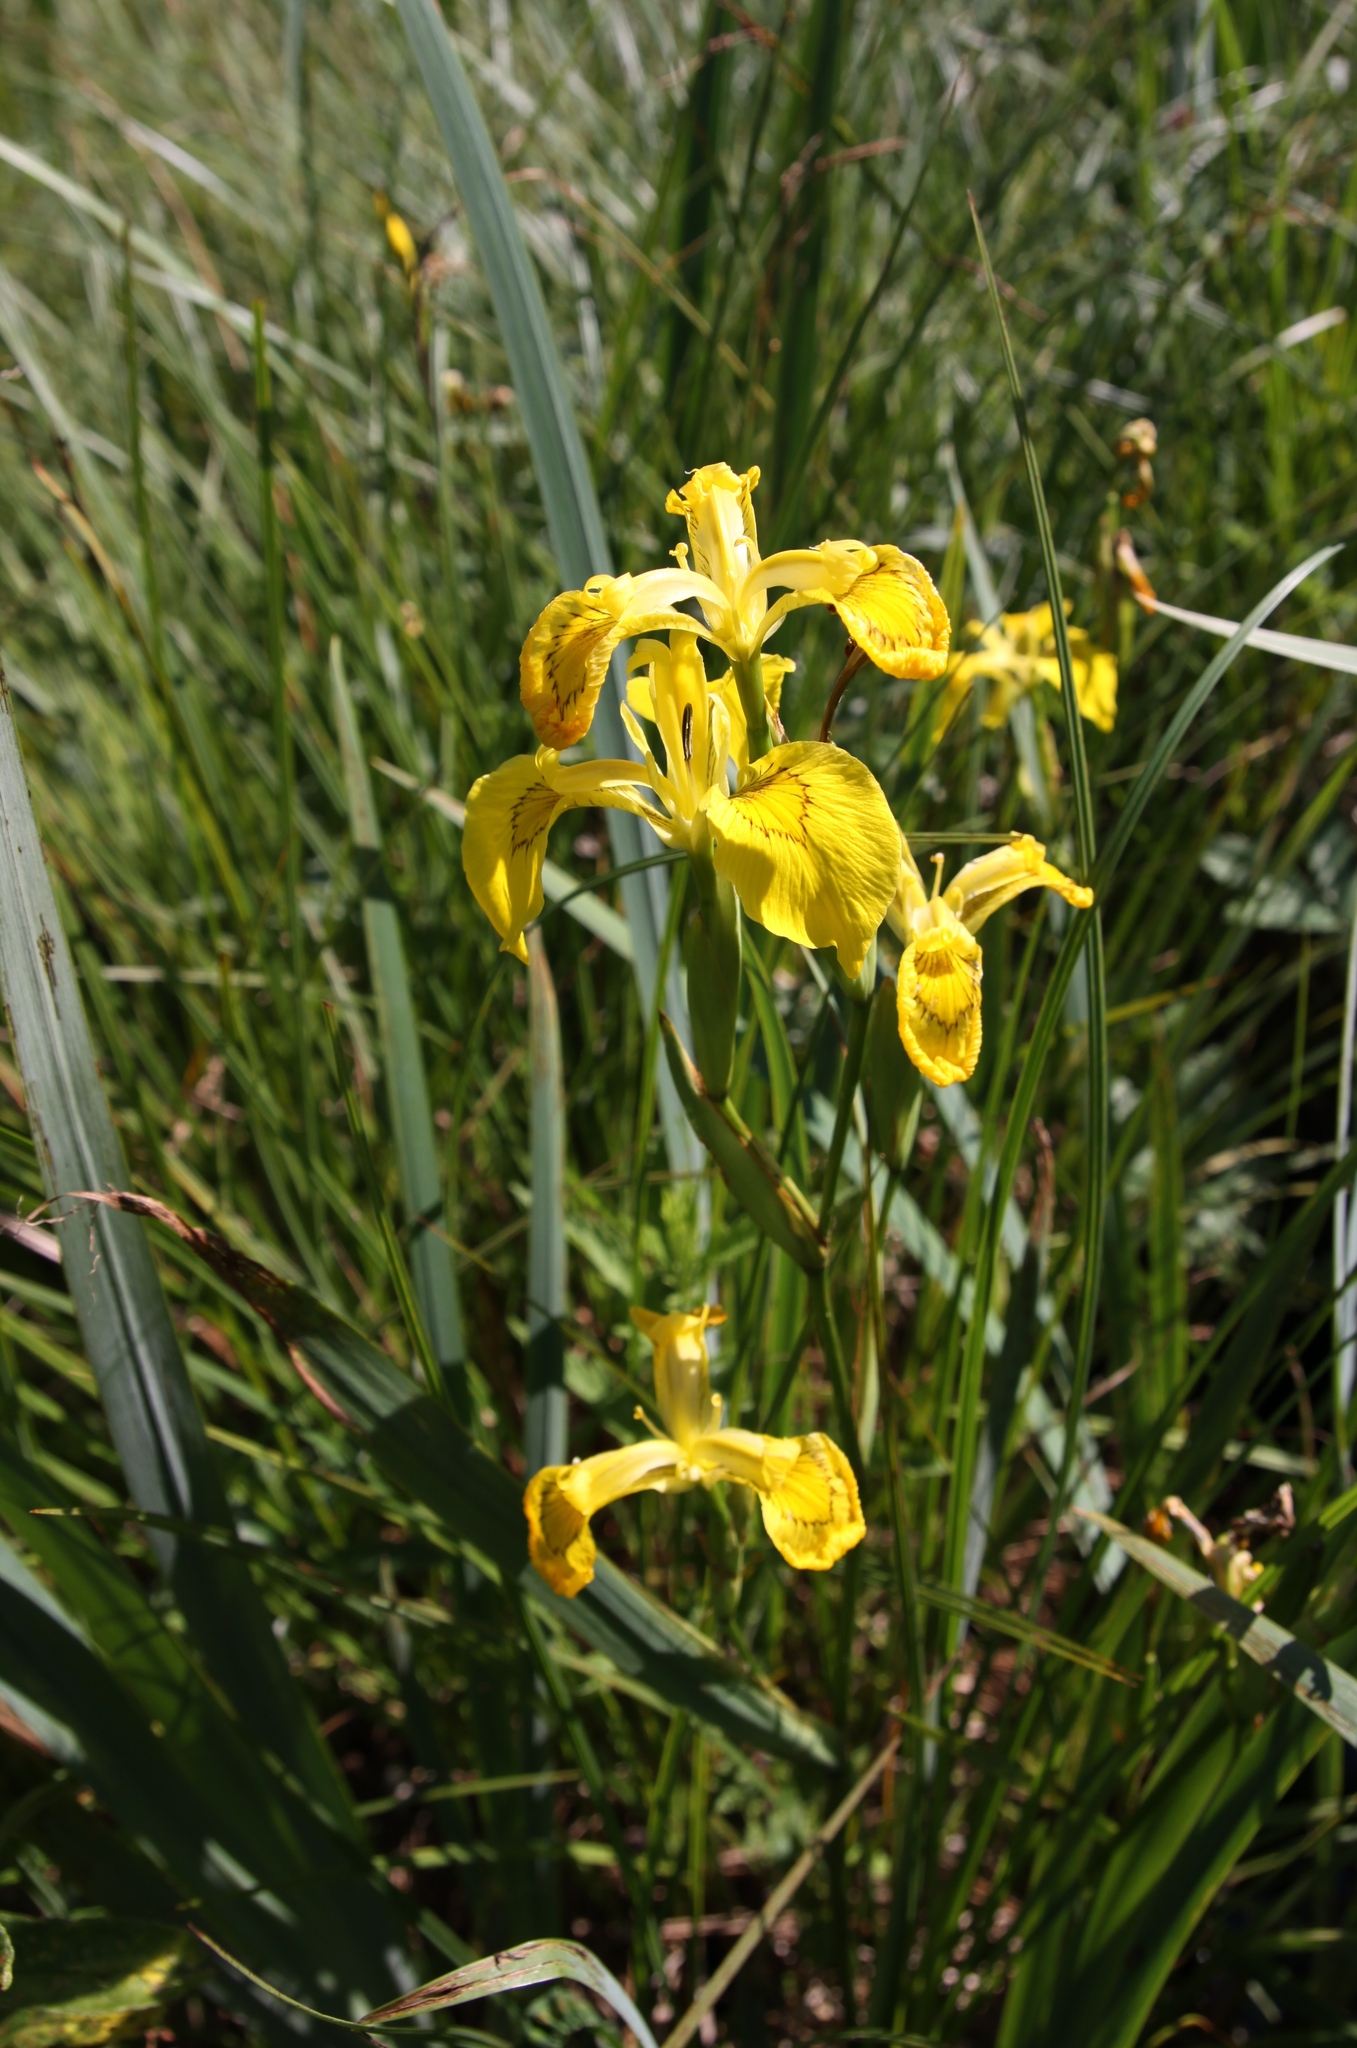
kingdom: Plantae
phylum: Tracheophyta
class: Liliopsida
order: Asparagales
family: Iridaceae
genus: Iris
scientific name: Iris pseudacorus
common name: Yellow flag
